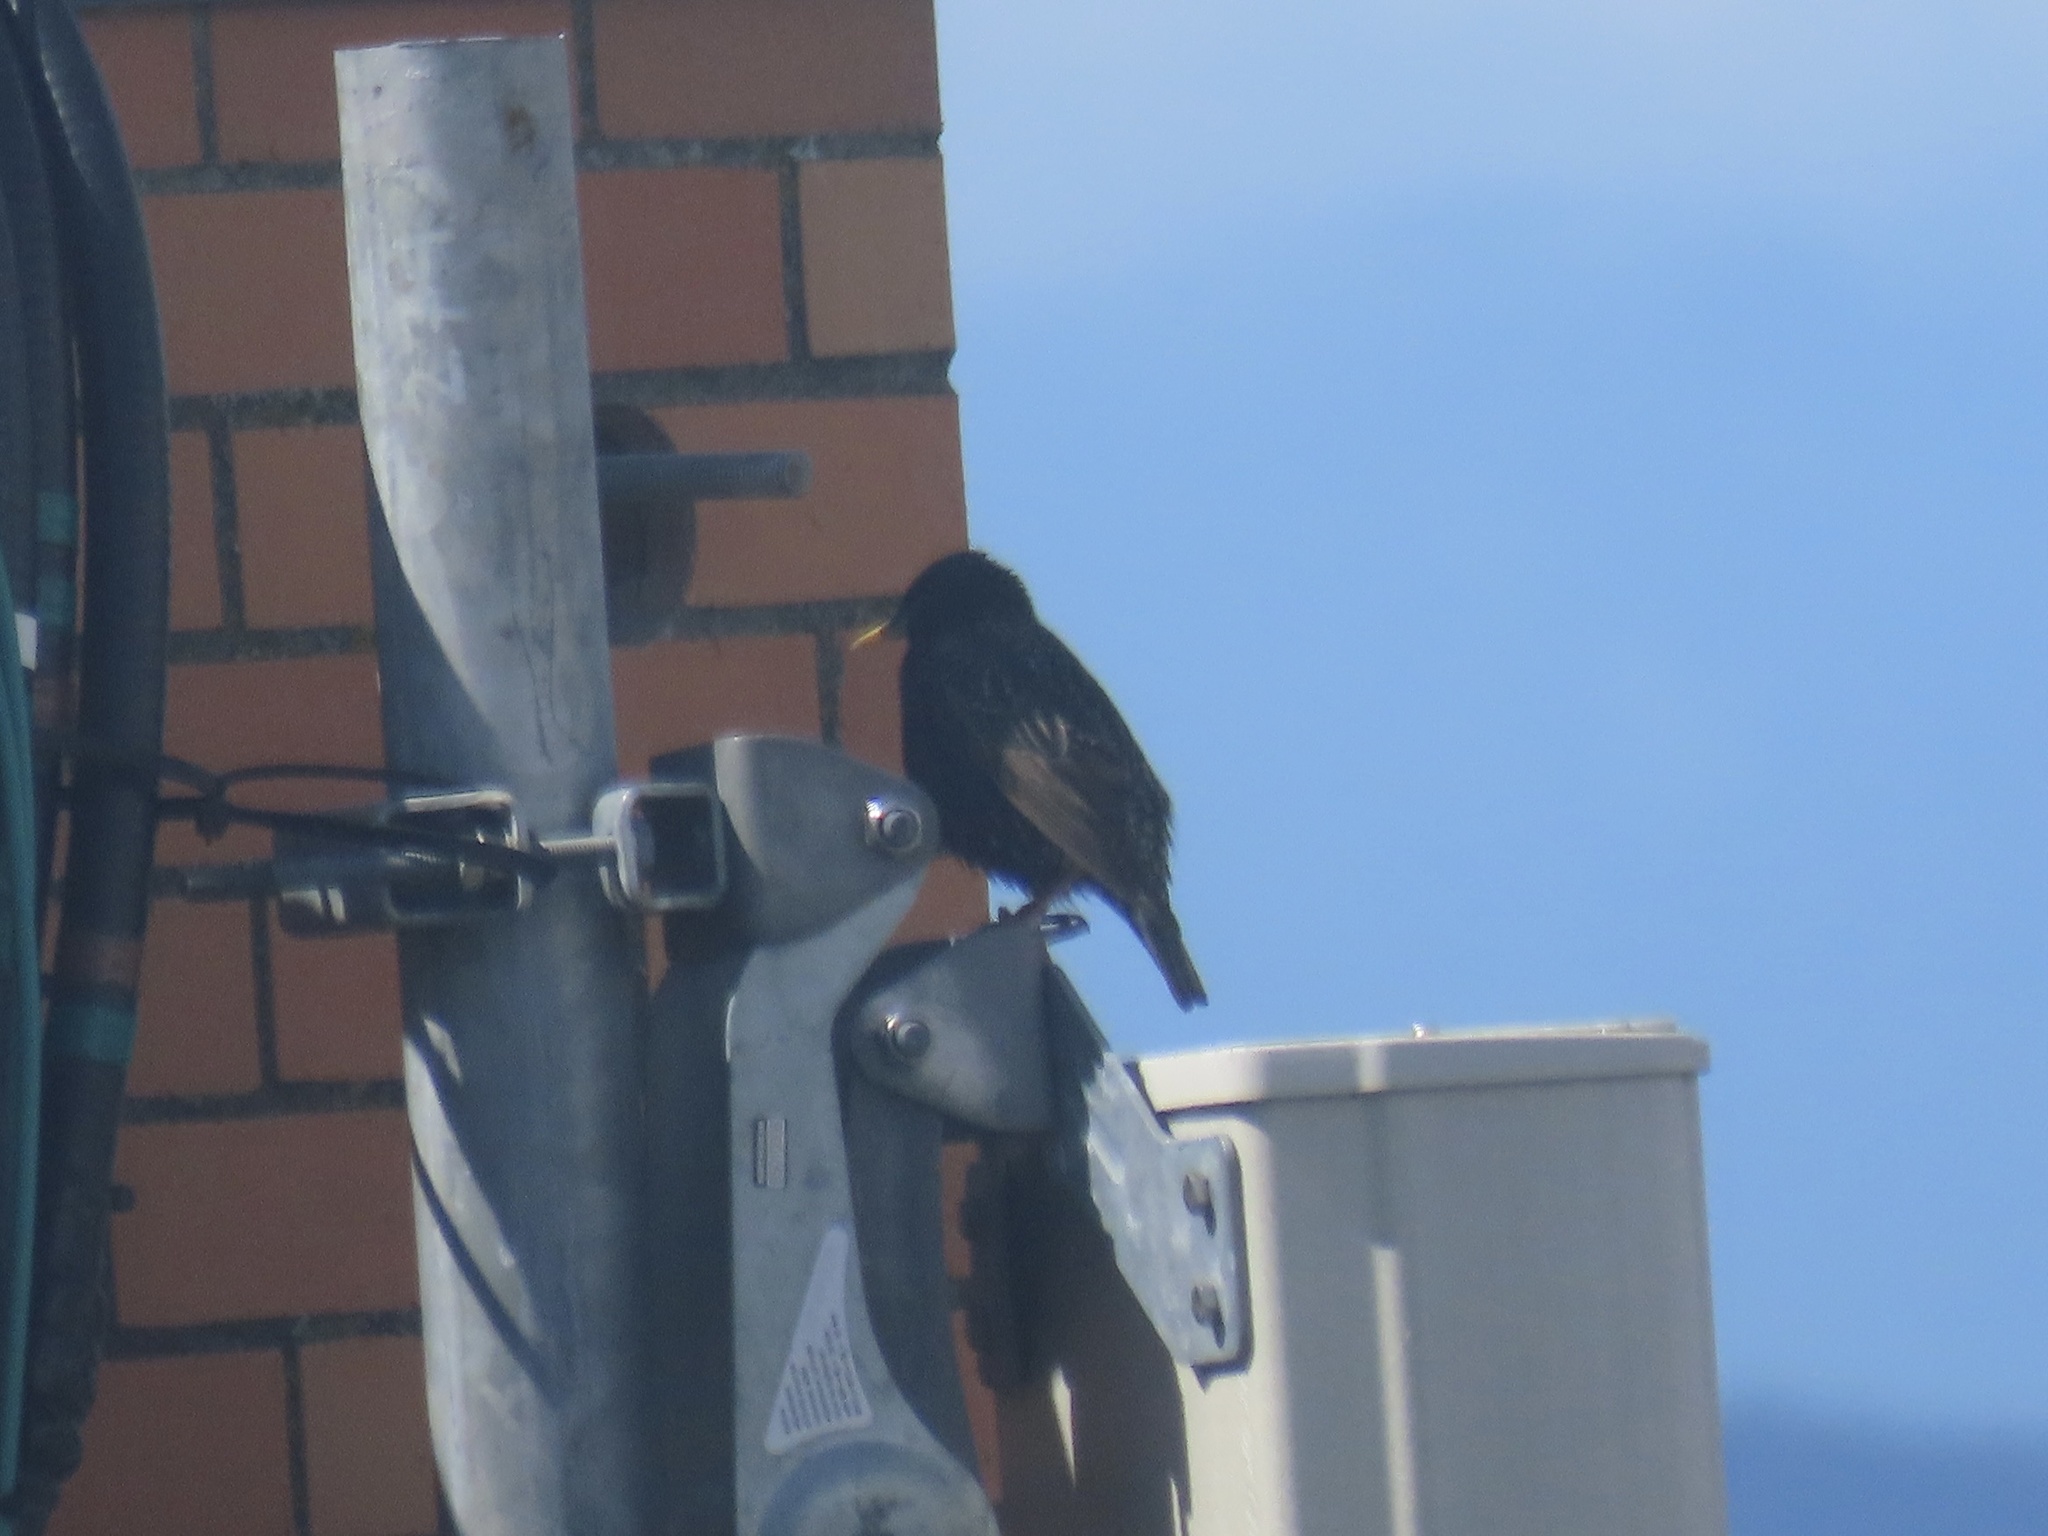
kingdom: Animalia
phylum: Chordata
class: Aves
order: Passeriformes
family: Sturnidae
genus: Sturnus
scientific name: Sturnus vulgaris
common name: Common starling
